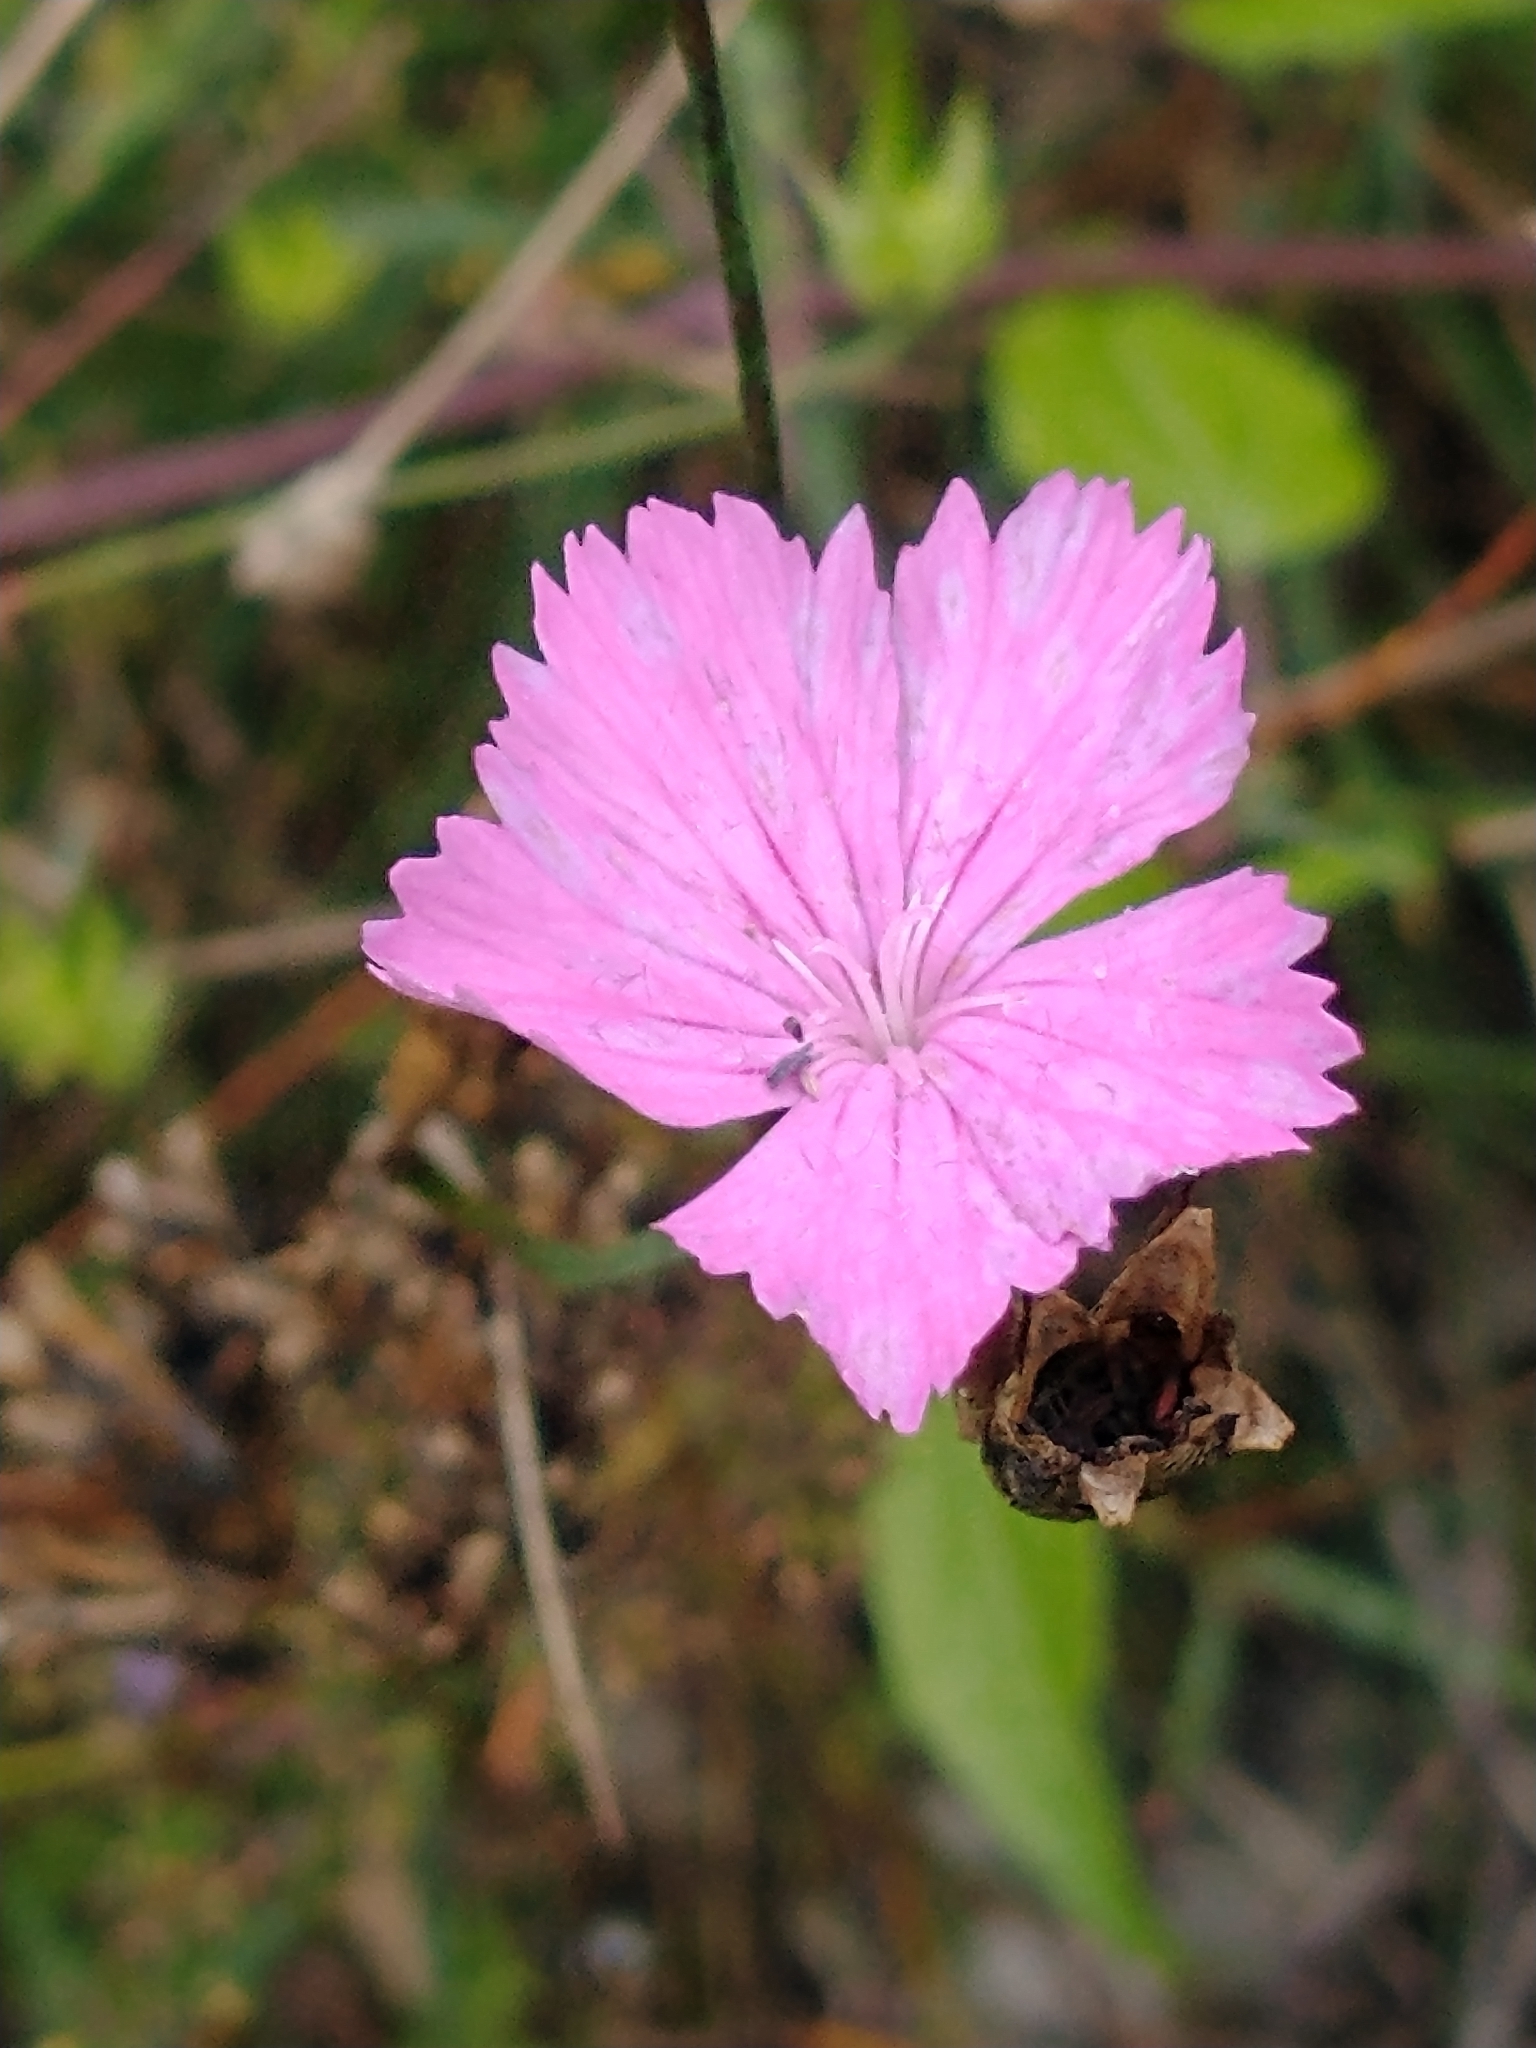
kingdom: Plantae
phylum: Tracheophyta
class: Magnoliopsida
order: Caryophyllales
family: Caryophyllaceae
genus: Dianthus
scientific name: Dianthus carthusianorum
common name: Carthusian pink
